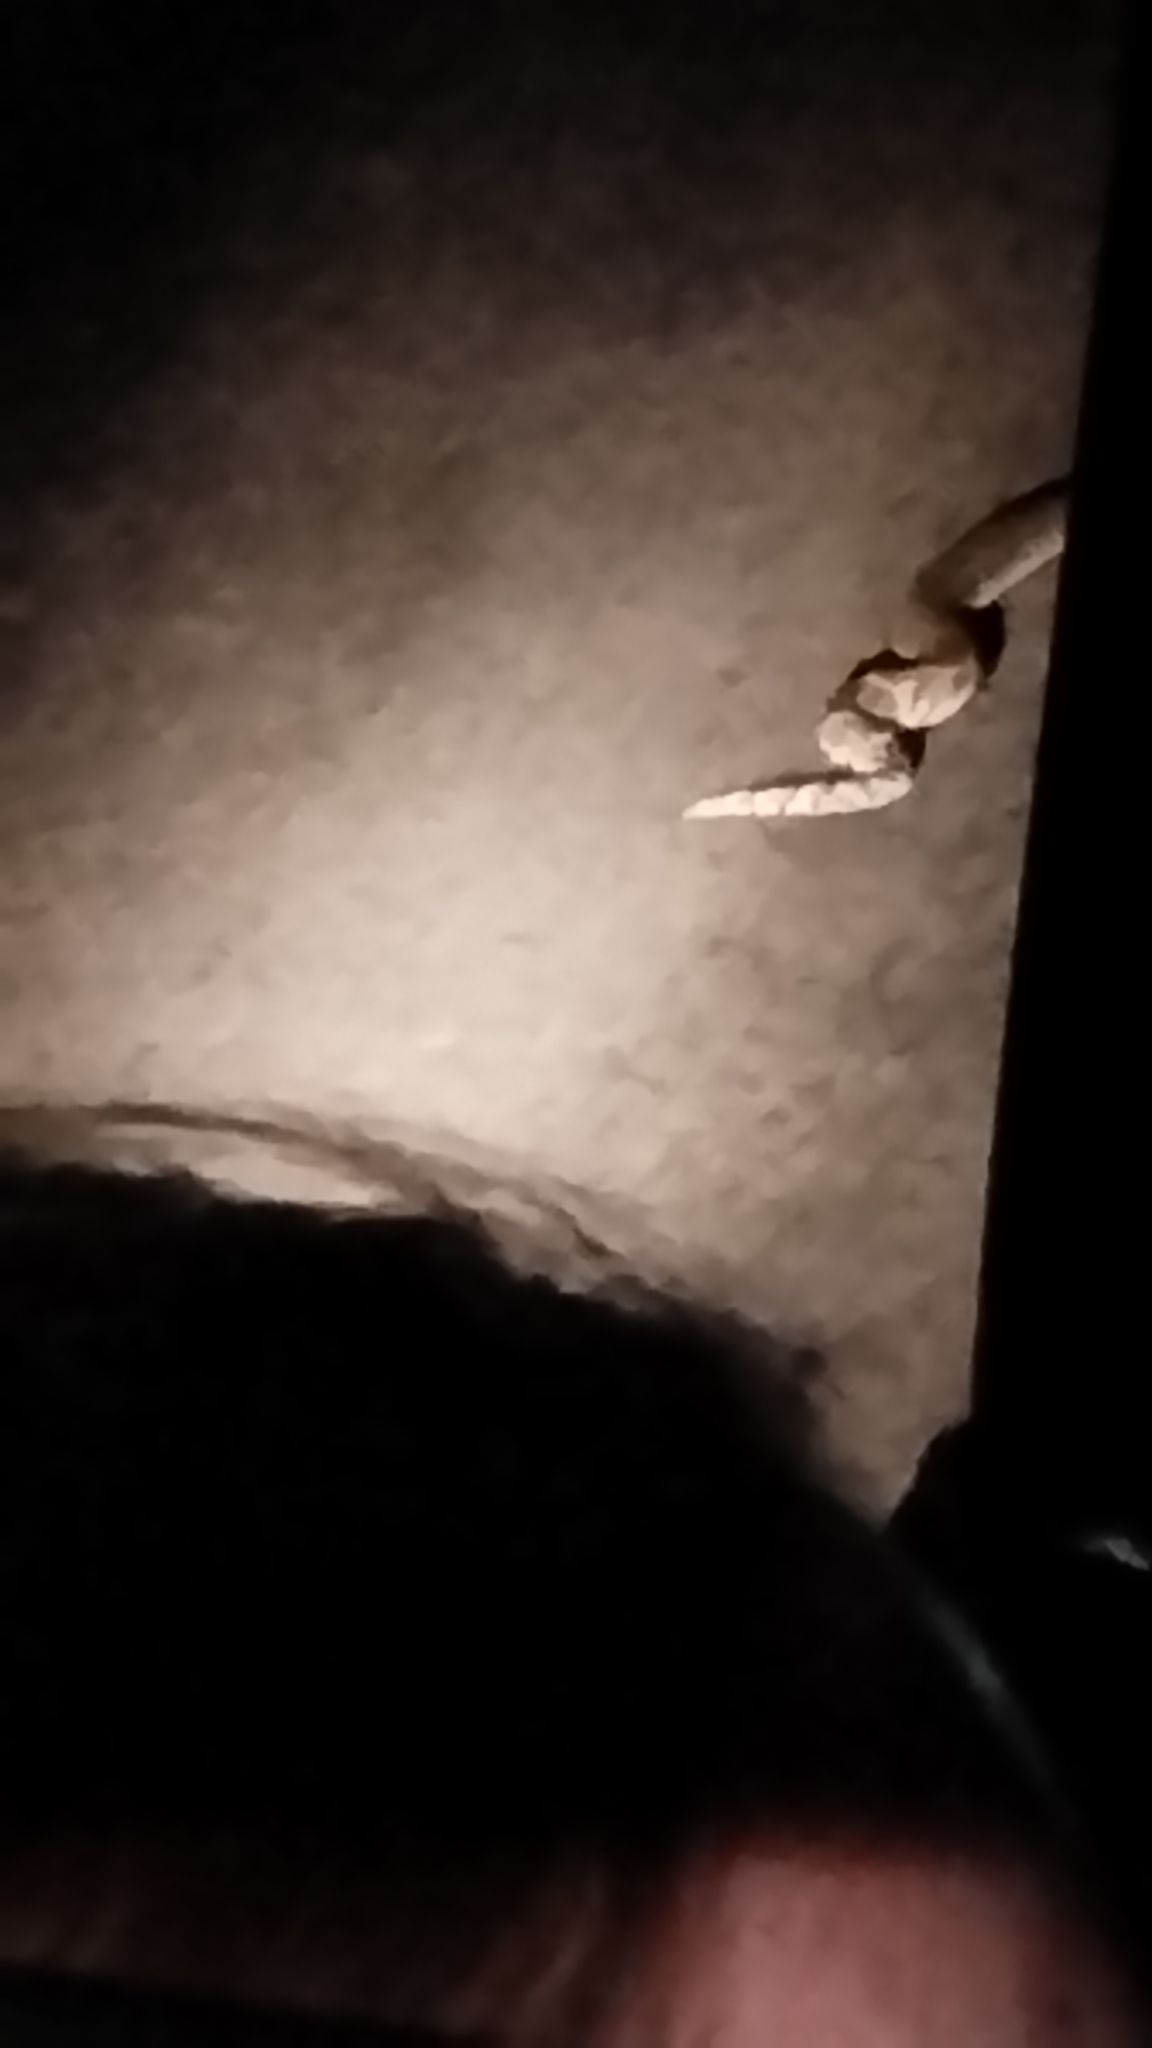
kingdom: Animalia
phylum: Chordata
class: Squamata
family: Viperidae
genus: Bitis
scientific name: Bitis arietans
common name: Puff adder
